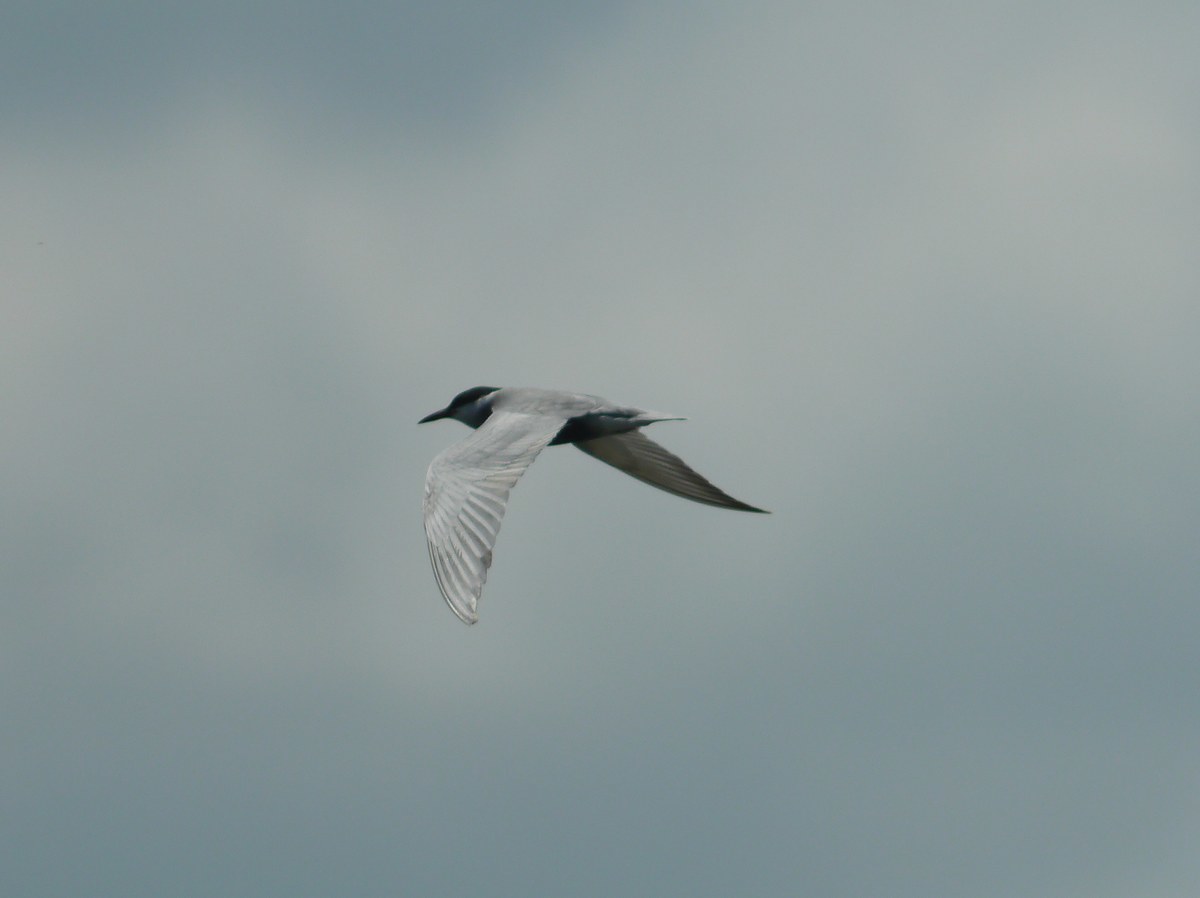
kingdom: Animalia
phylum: Chordata
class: Aves
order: Charadriiformes
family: Laridae
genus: Chlidonias
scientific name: Chlidonias hybrida
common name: Whiskered tern
